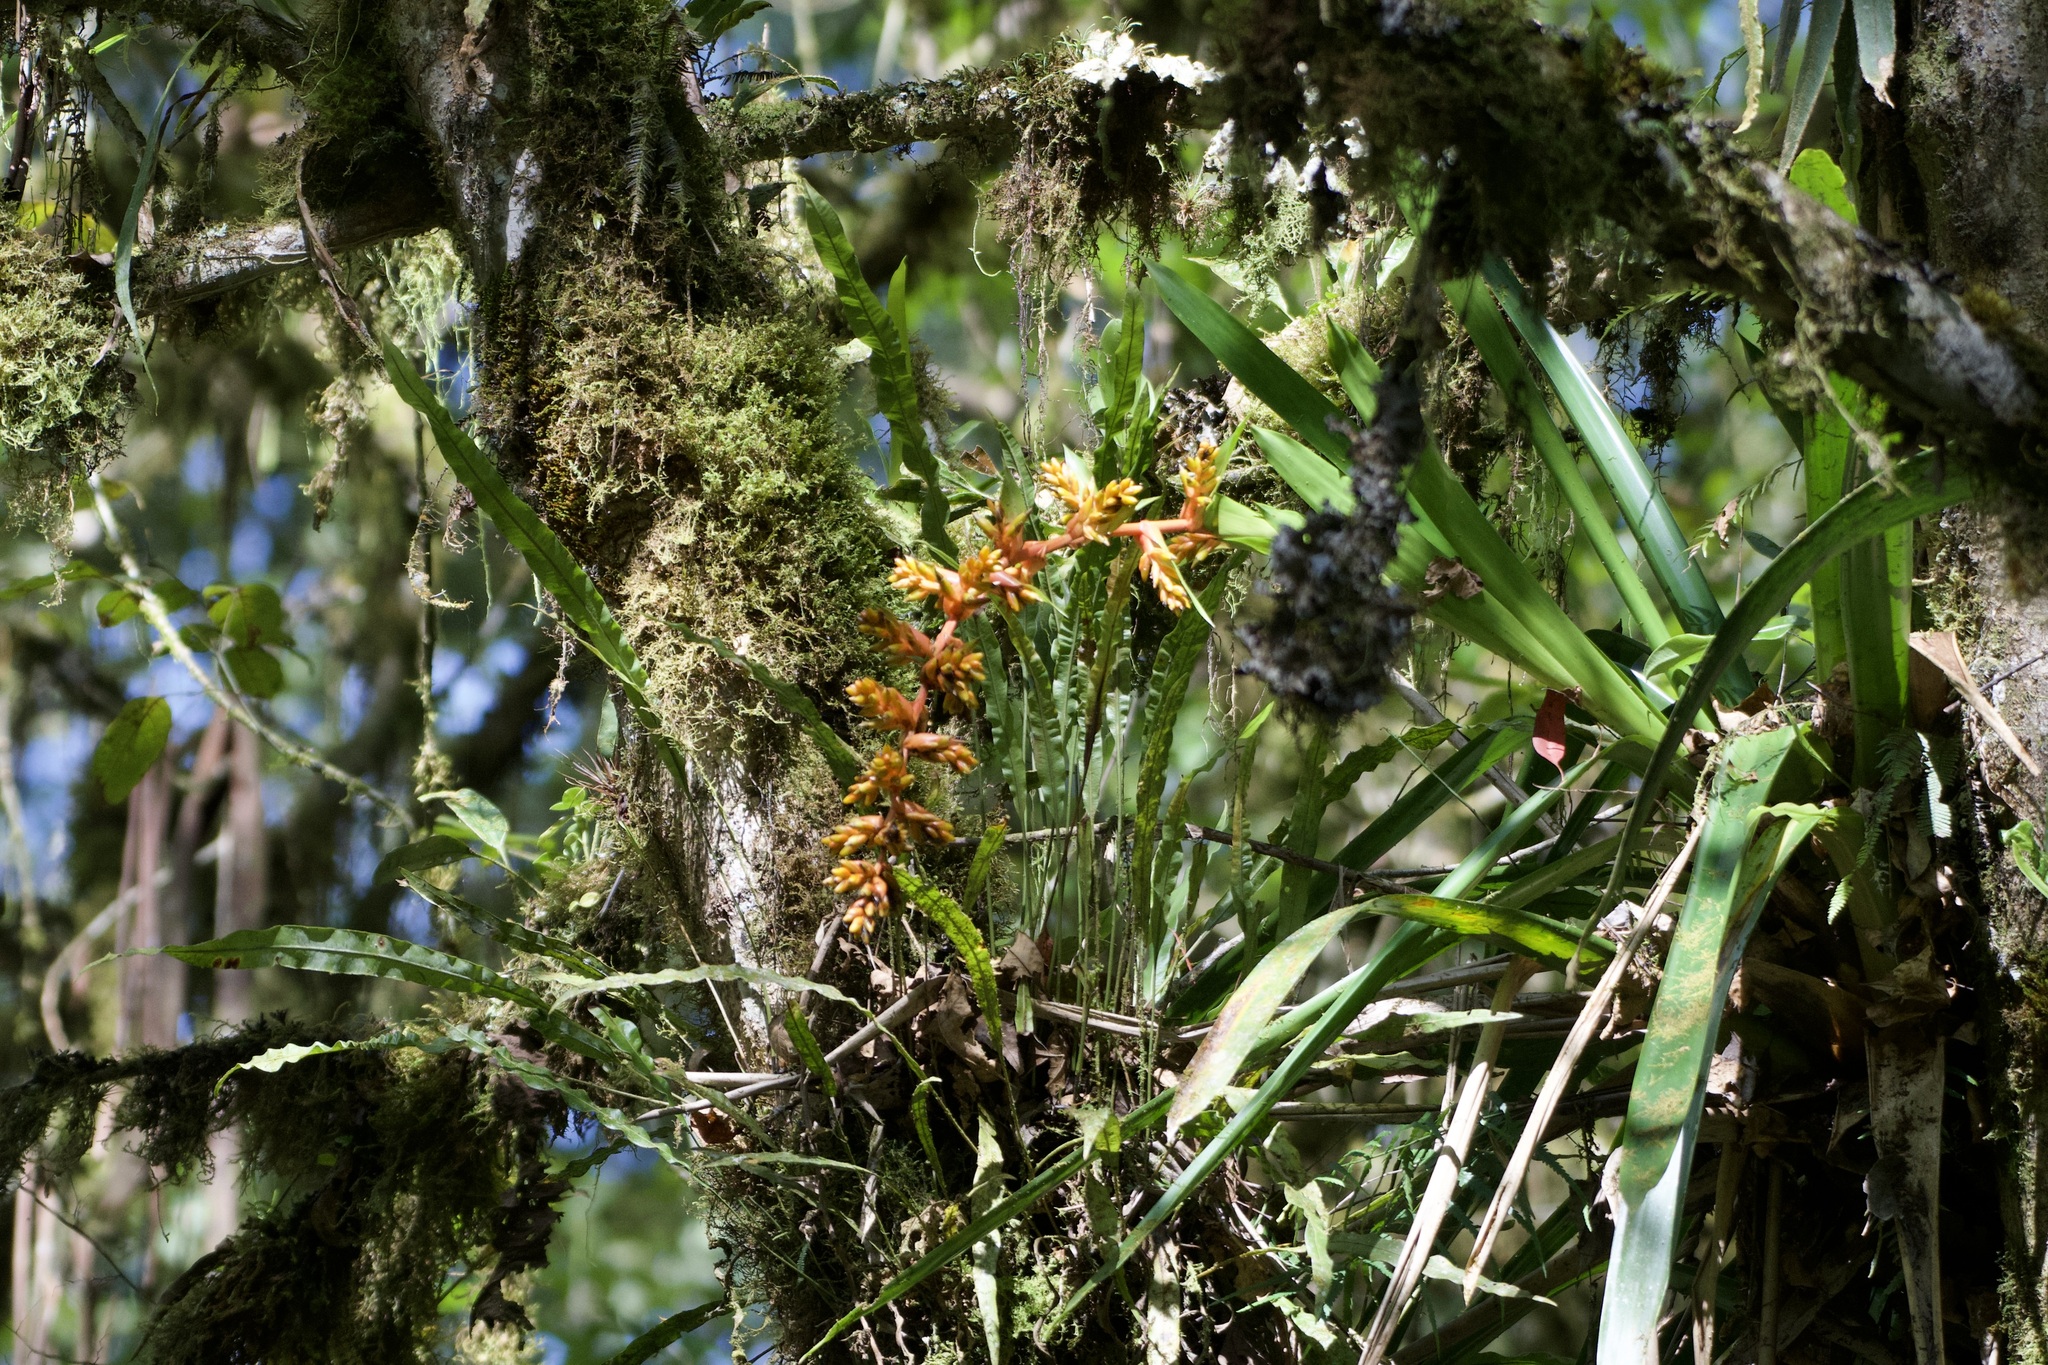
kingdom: Plantae
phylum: Tracheophyta
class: Liliopsida
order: Poales
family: Bromeliaceae
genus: Guzmania
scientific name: Guzmania multiflora
